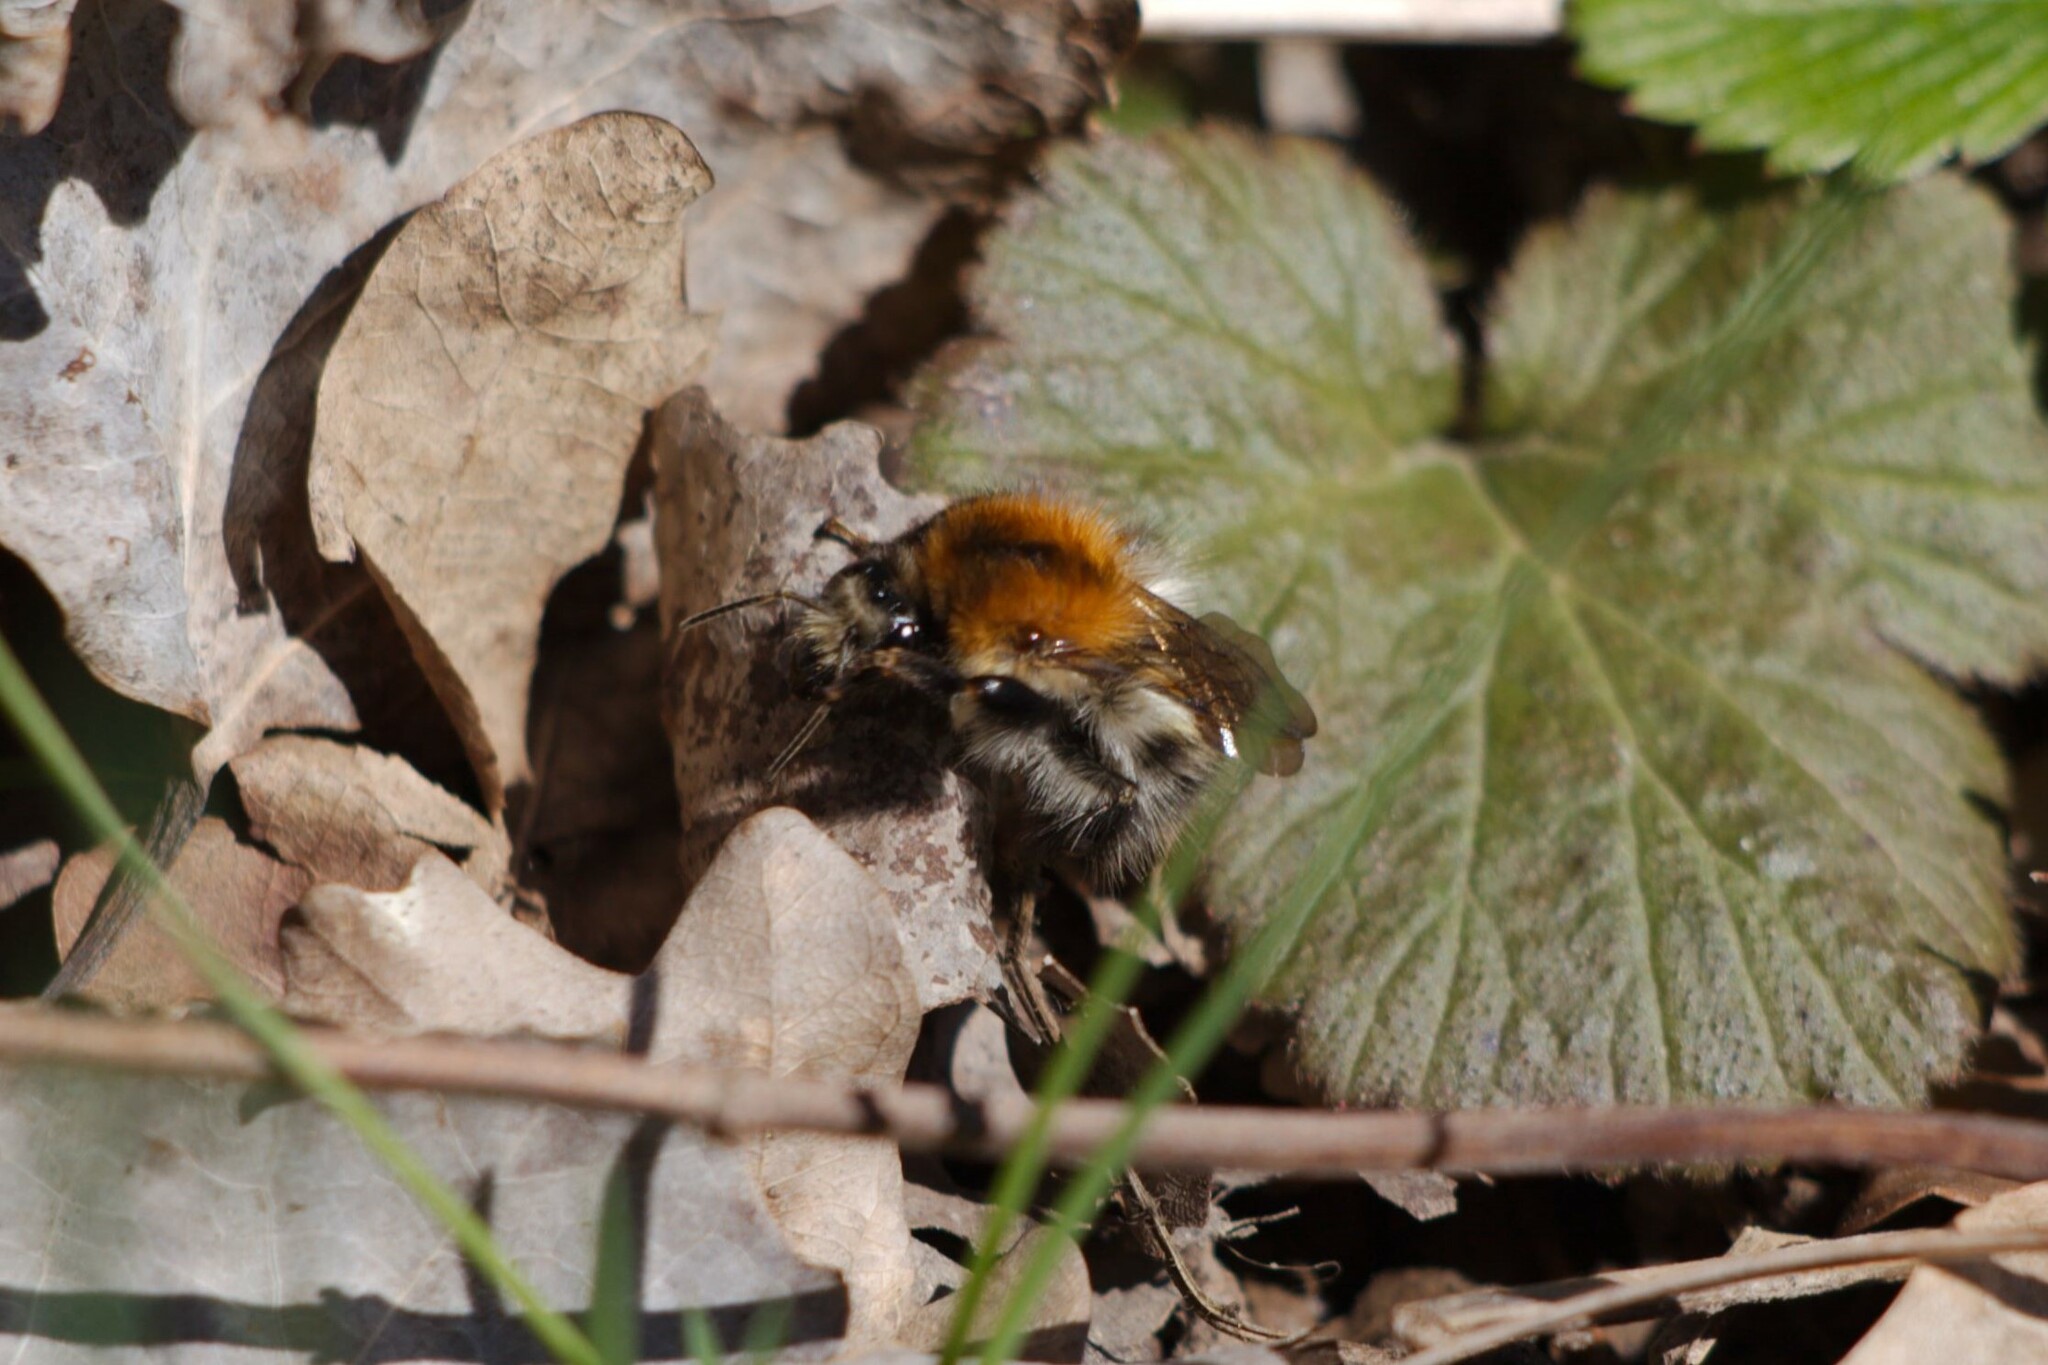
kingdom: Animalia
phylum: Arthropoda
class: Insecta
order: Hymenoptera
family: Apidae
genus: Bombus
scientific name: Bombus pascuorum
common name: Common carder bee
